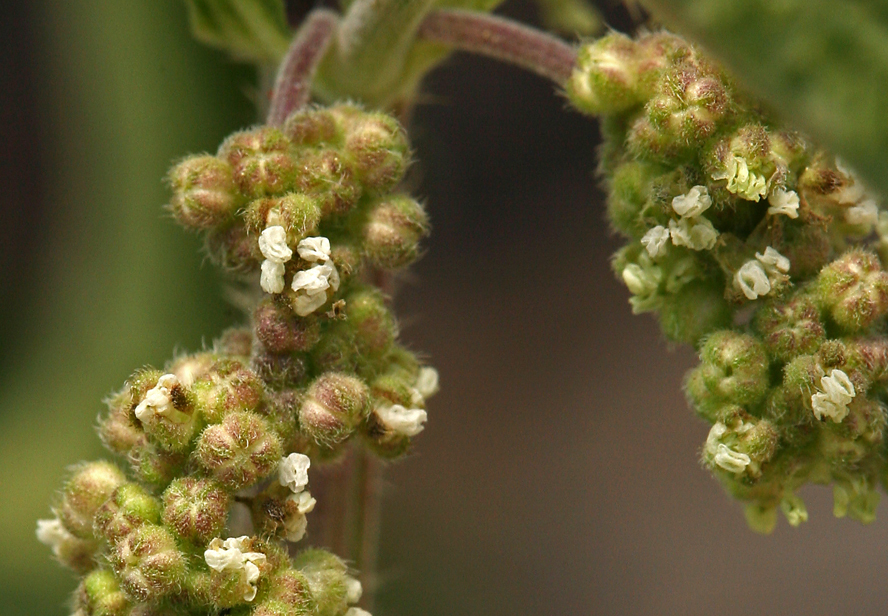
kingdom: Plantae
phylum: Tracheophyta
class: Magnoliopsida
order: Rosales
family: Urticaceae
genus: Urtica
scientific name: Urtica gracilis
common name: Slender stinging nettle
